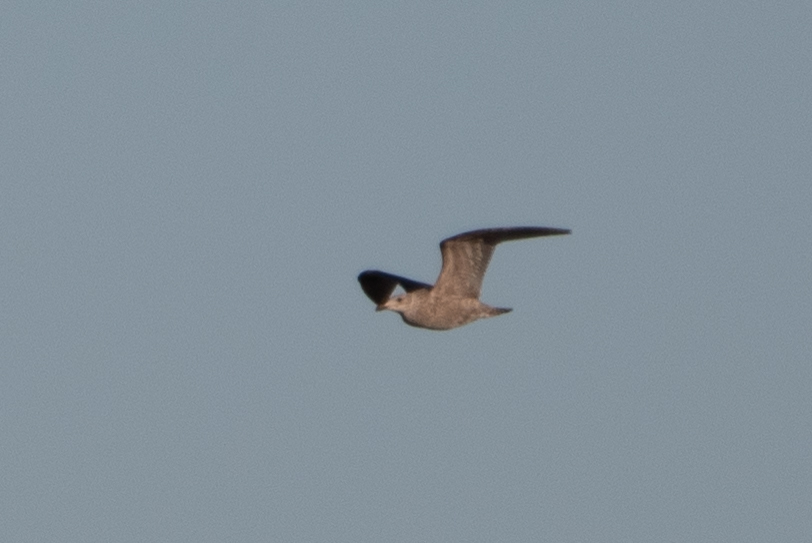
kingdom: Animalia
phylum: Chordata
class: Aves
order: Charadriiformes
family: Laridae
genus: Larus
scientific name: Larus argentatus
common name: Herring gull
